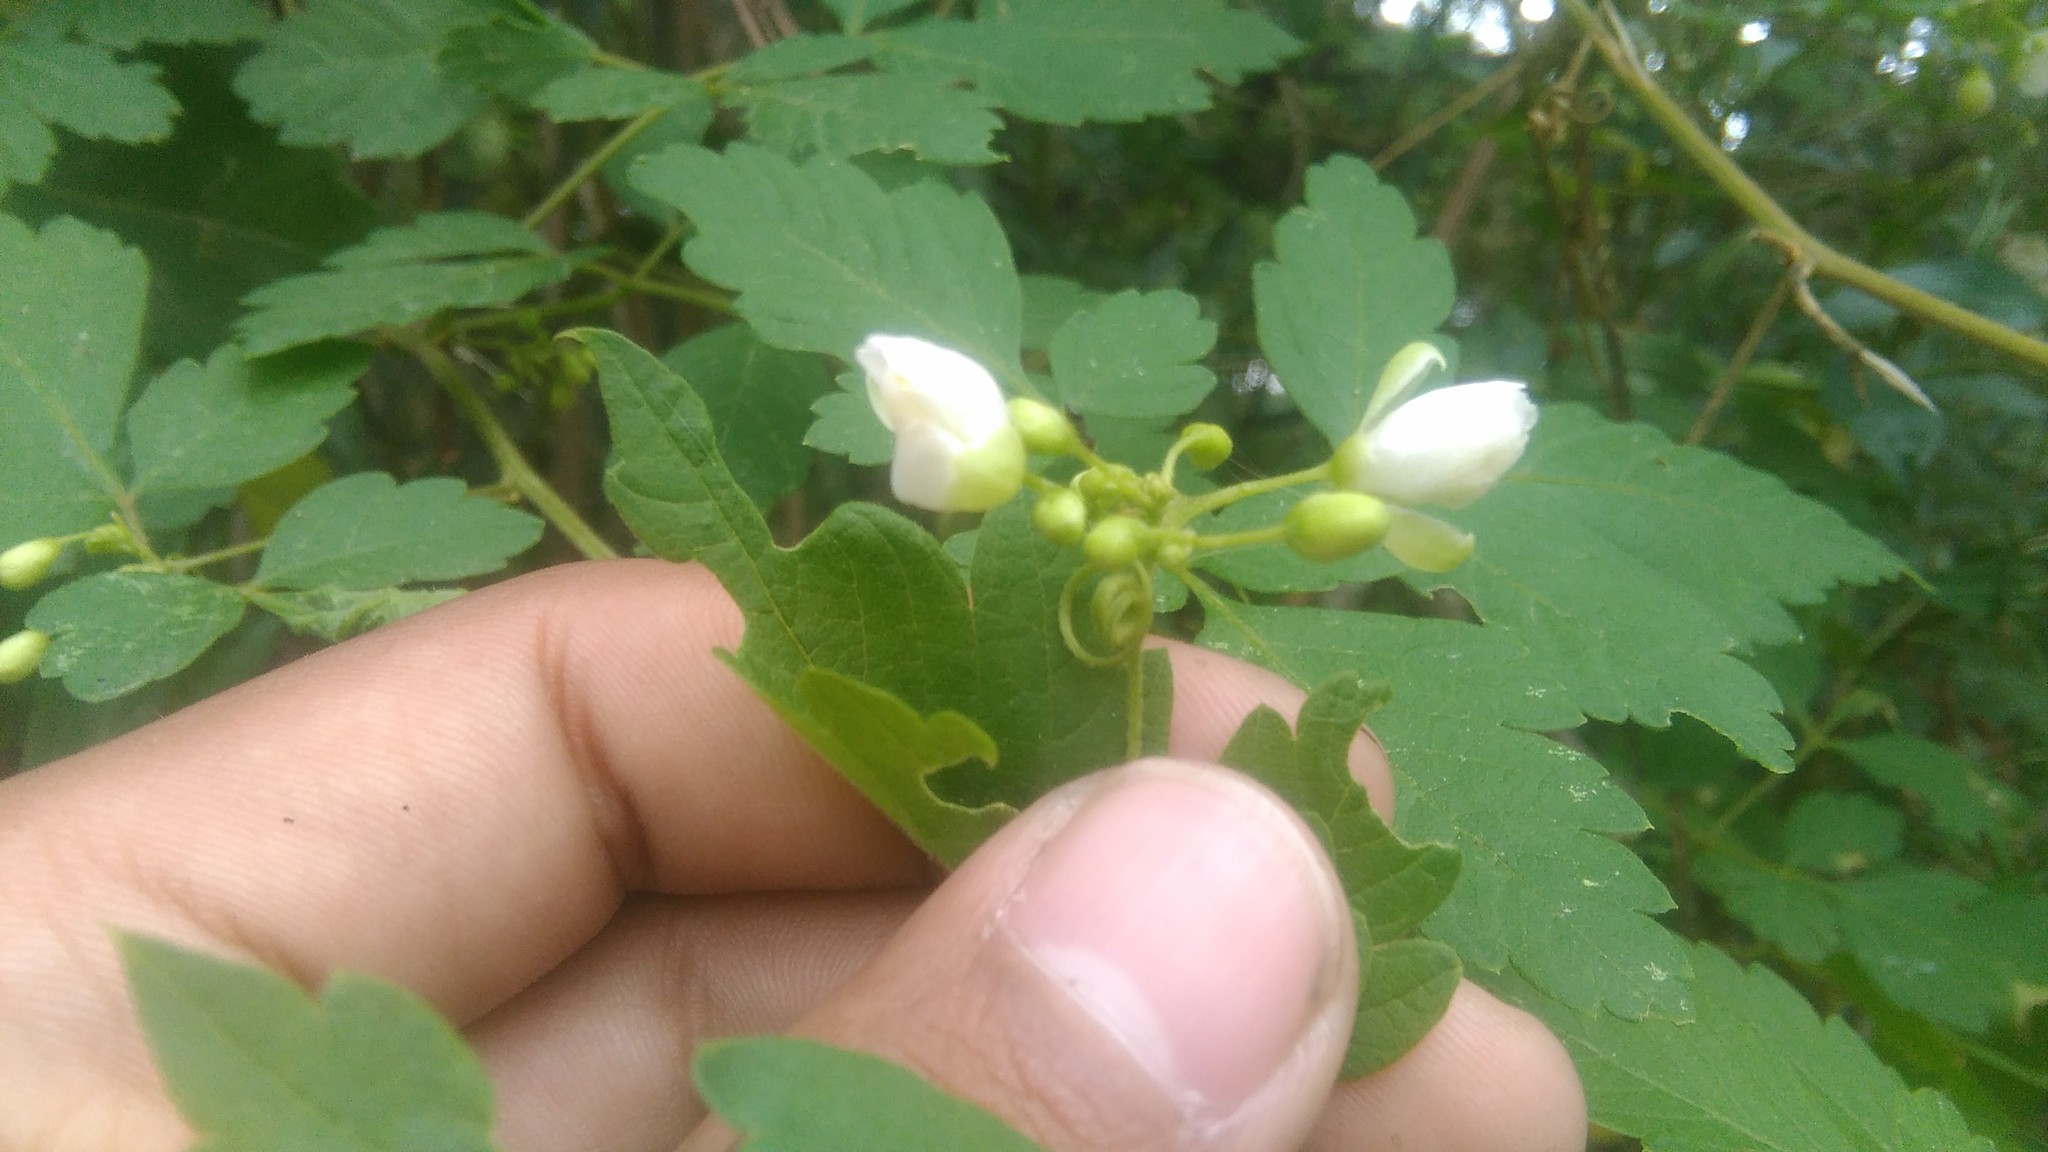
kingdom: Plantae
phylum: Tracheophyta
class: Magnoliopsida
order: Sapindales
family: Sapindaceae
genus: Cardiospermum
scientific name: Cardiospermum grandiflorum
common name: Balloon vine
